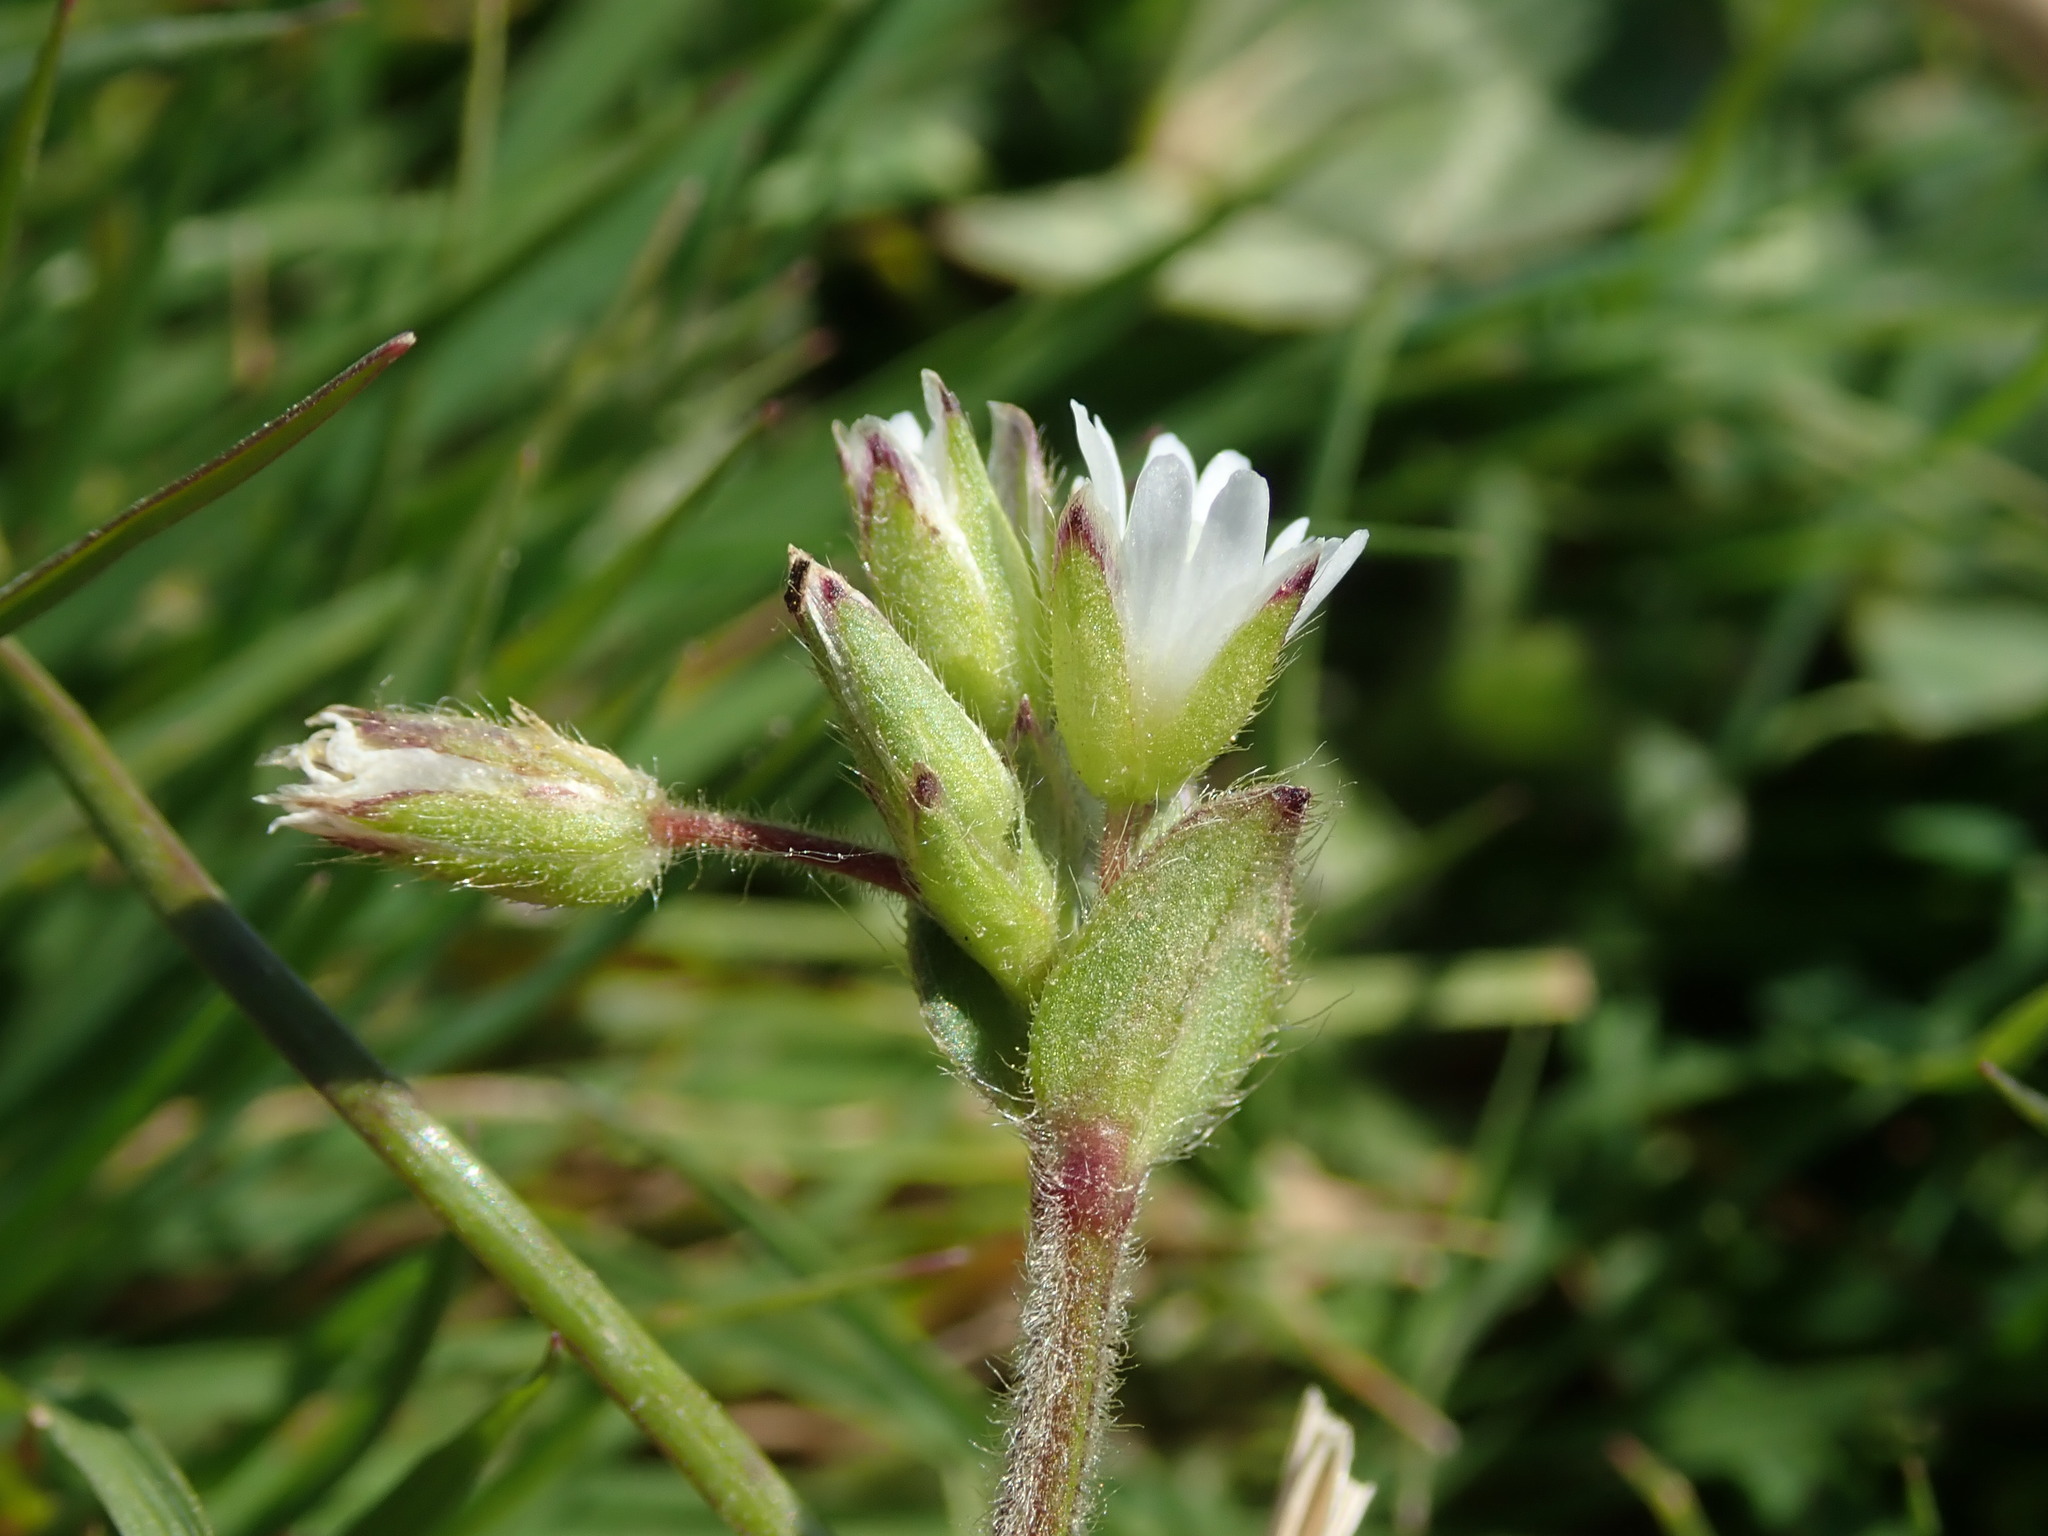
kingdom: Plantae
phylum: Tracheophyta
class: Magnoliopsida
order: Caryophyllales
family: Caryophyllaceae
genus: Cerastium
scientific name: Cerastium fontanum
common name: Common mouse-ear
